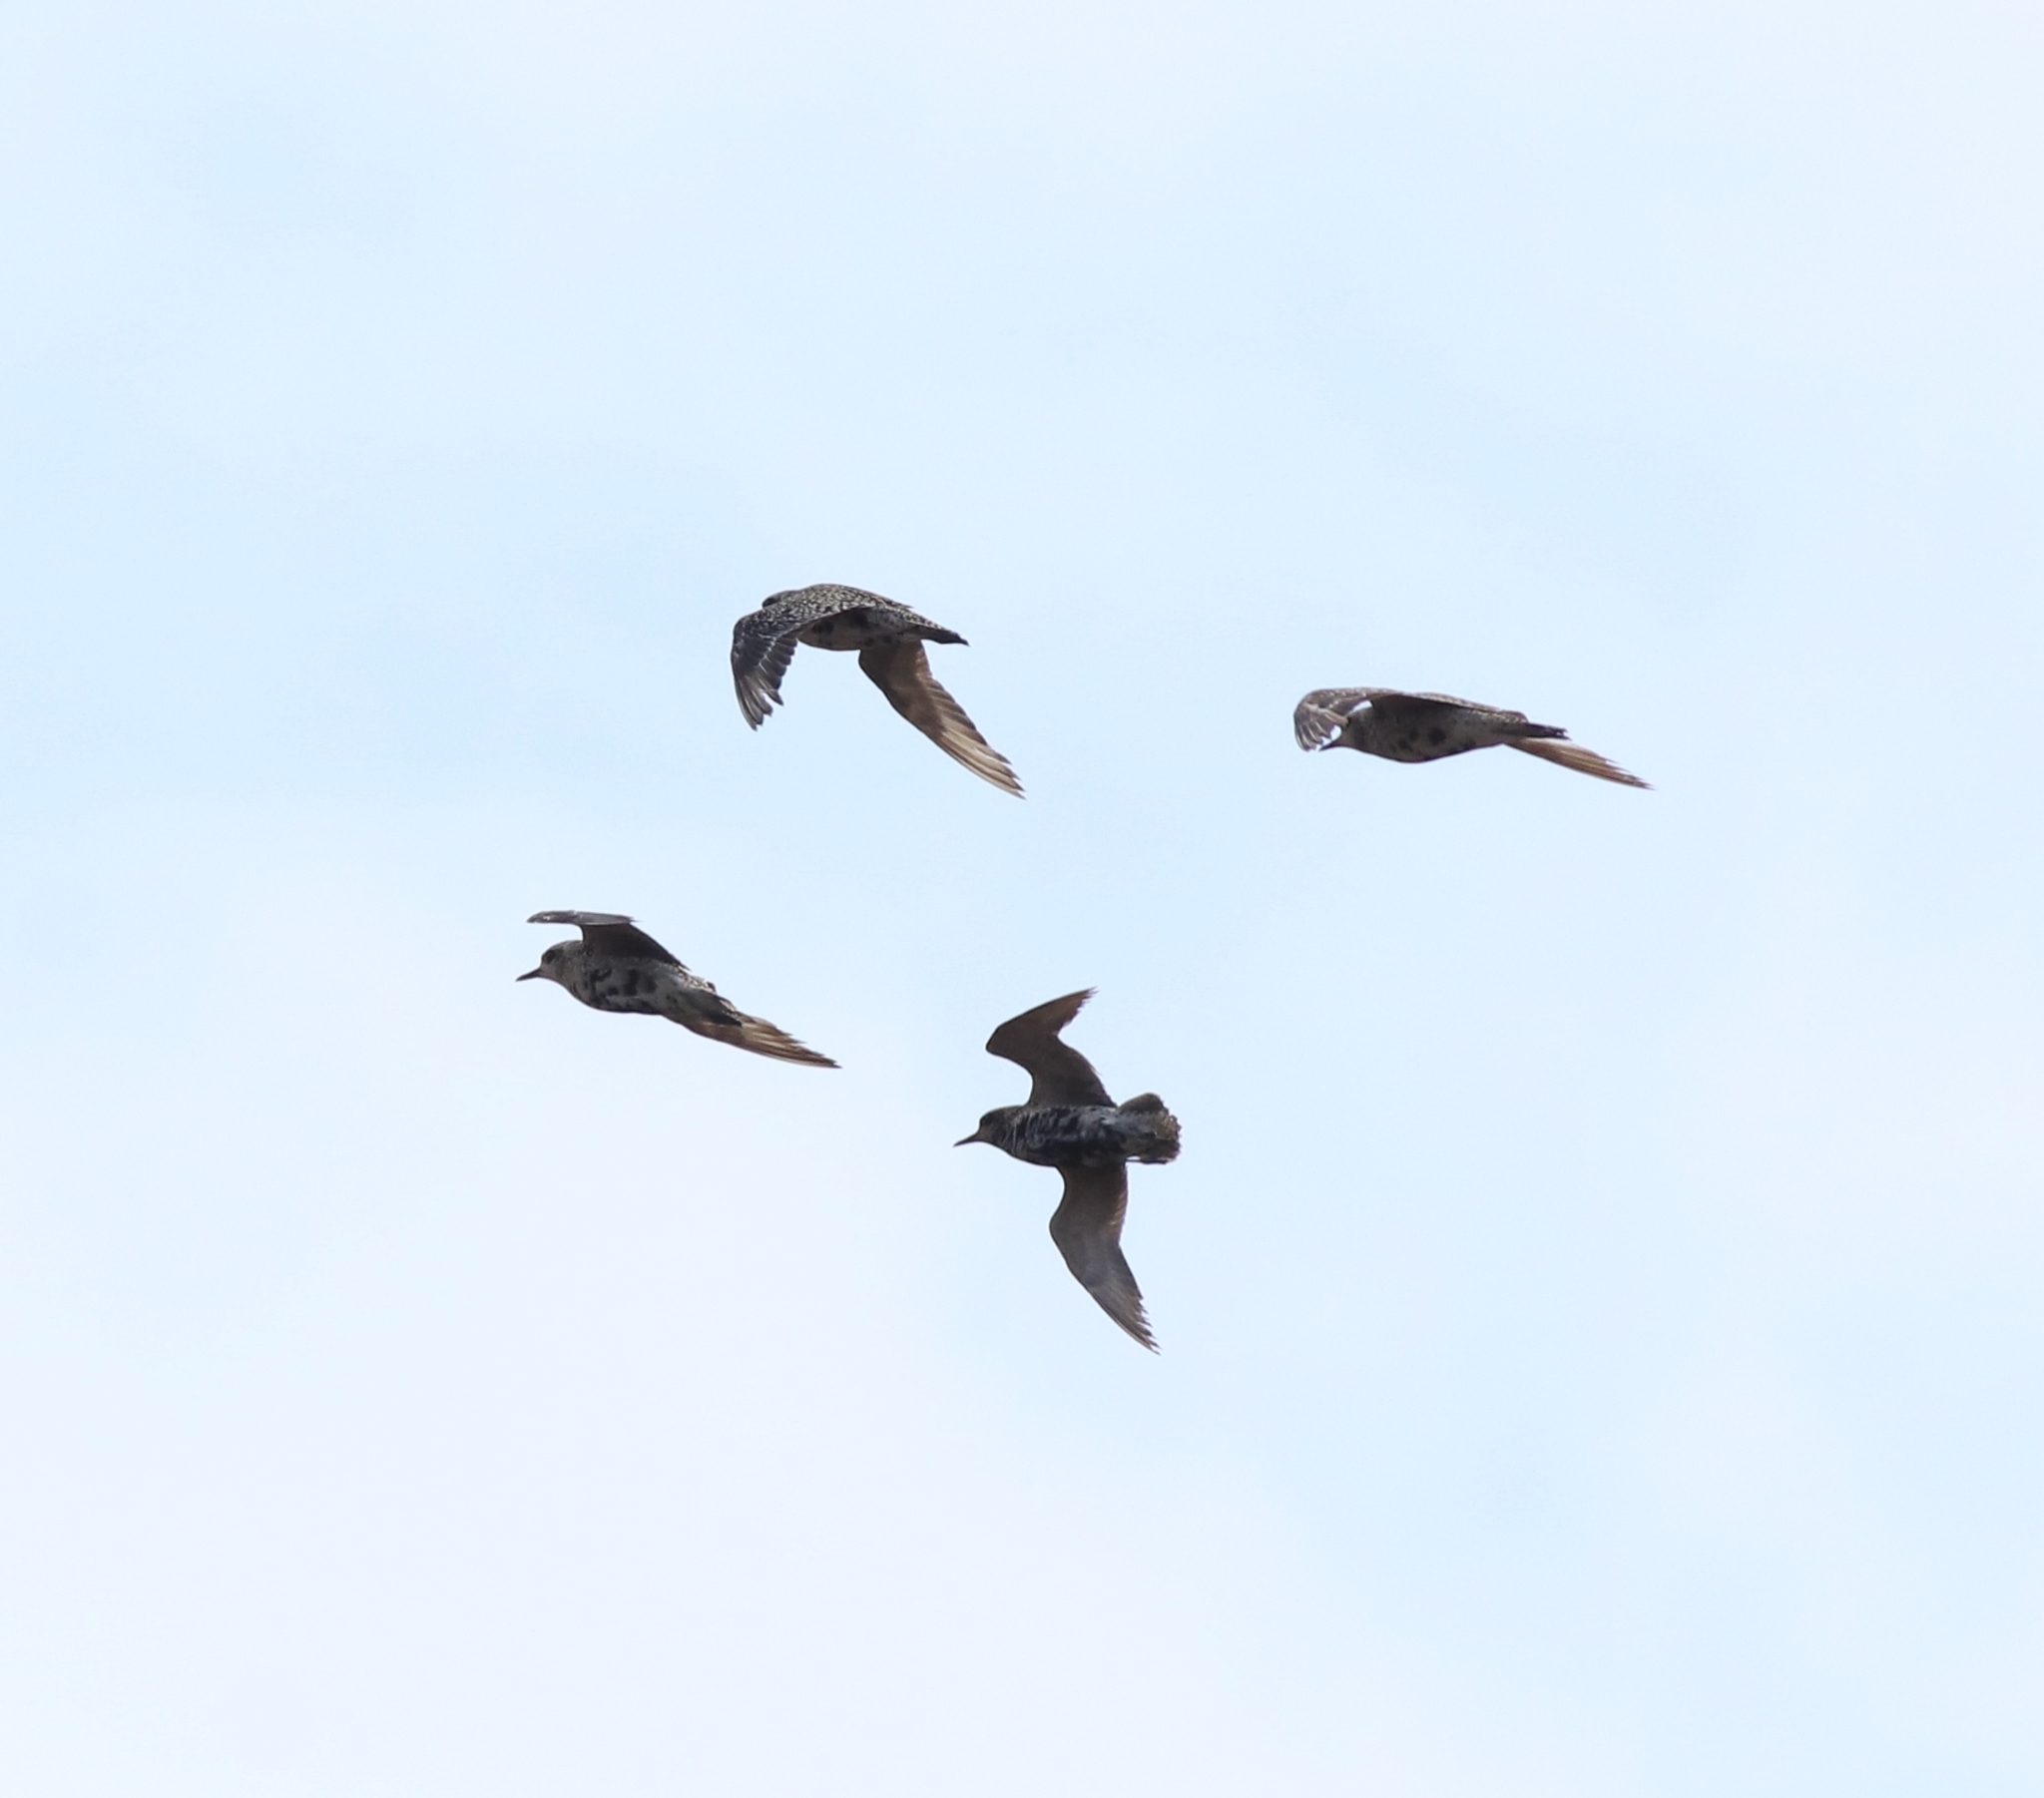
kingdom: Animalia
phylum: Chordata
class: Aves
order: Charadriiformes
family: Charadriidae
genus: Pluvialis
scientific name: Pluvialis fulva
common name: Pacific golden plover
